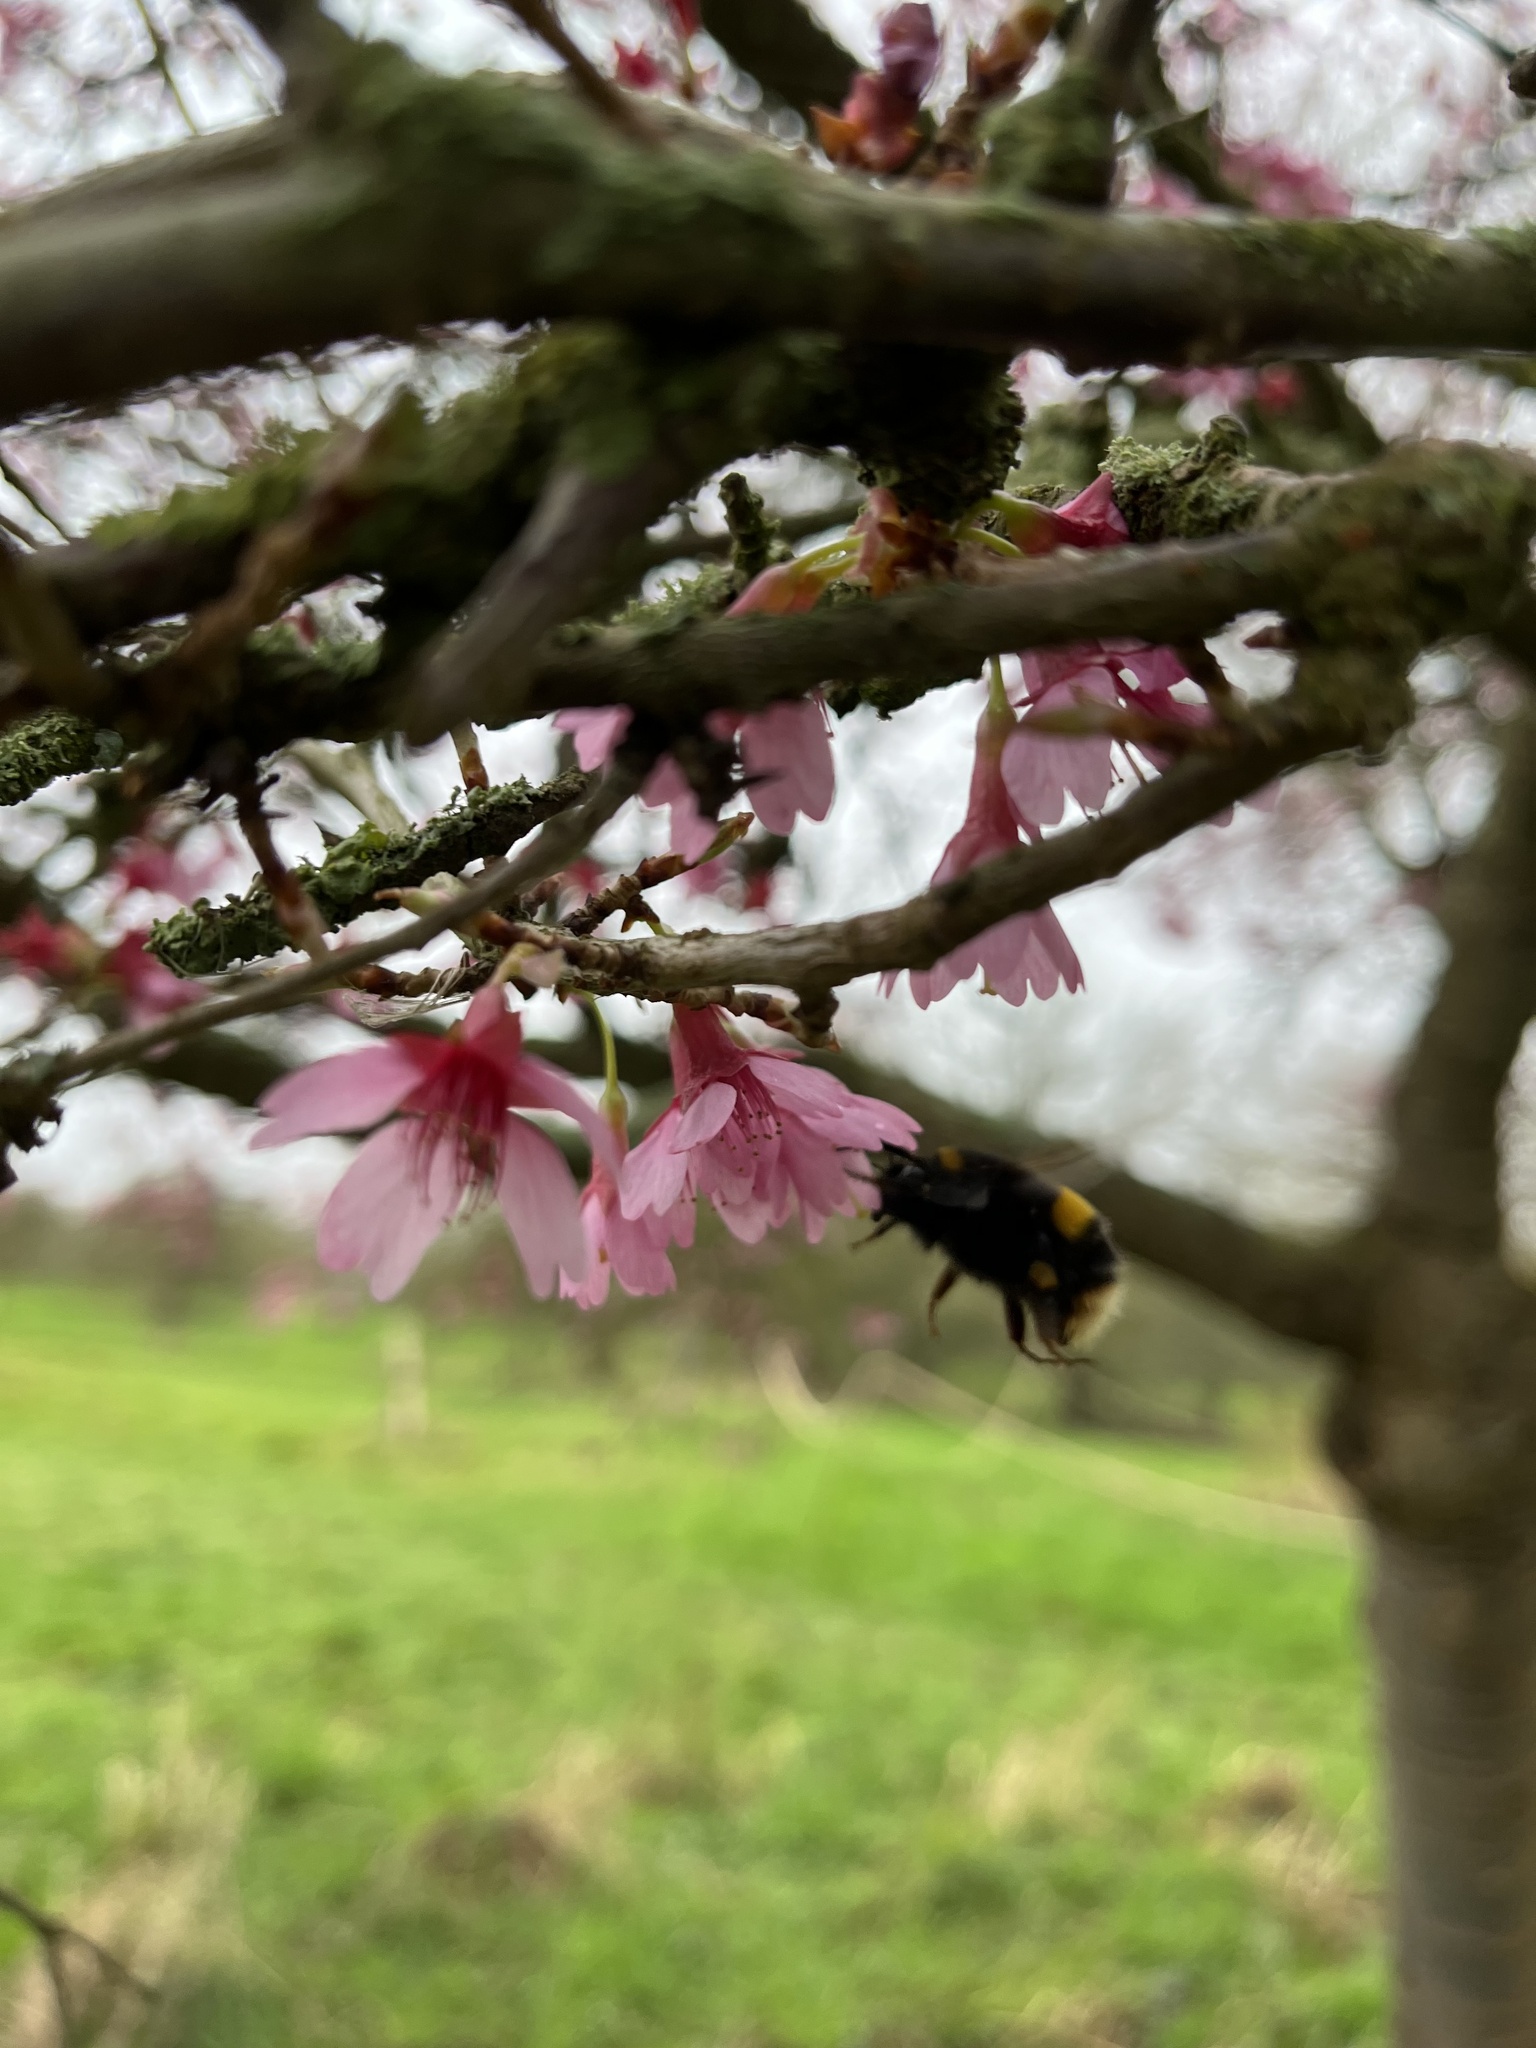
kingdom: Animalia
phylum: Arthropoda
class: Insecta
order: Hymenoptera
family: Apidae
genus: Bombus
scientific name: Bombus terrestris
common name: Buff-tailed bumblebee
